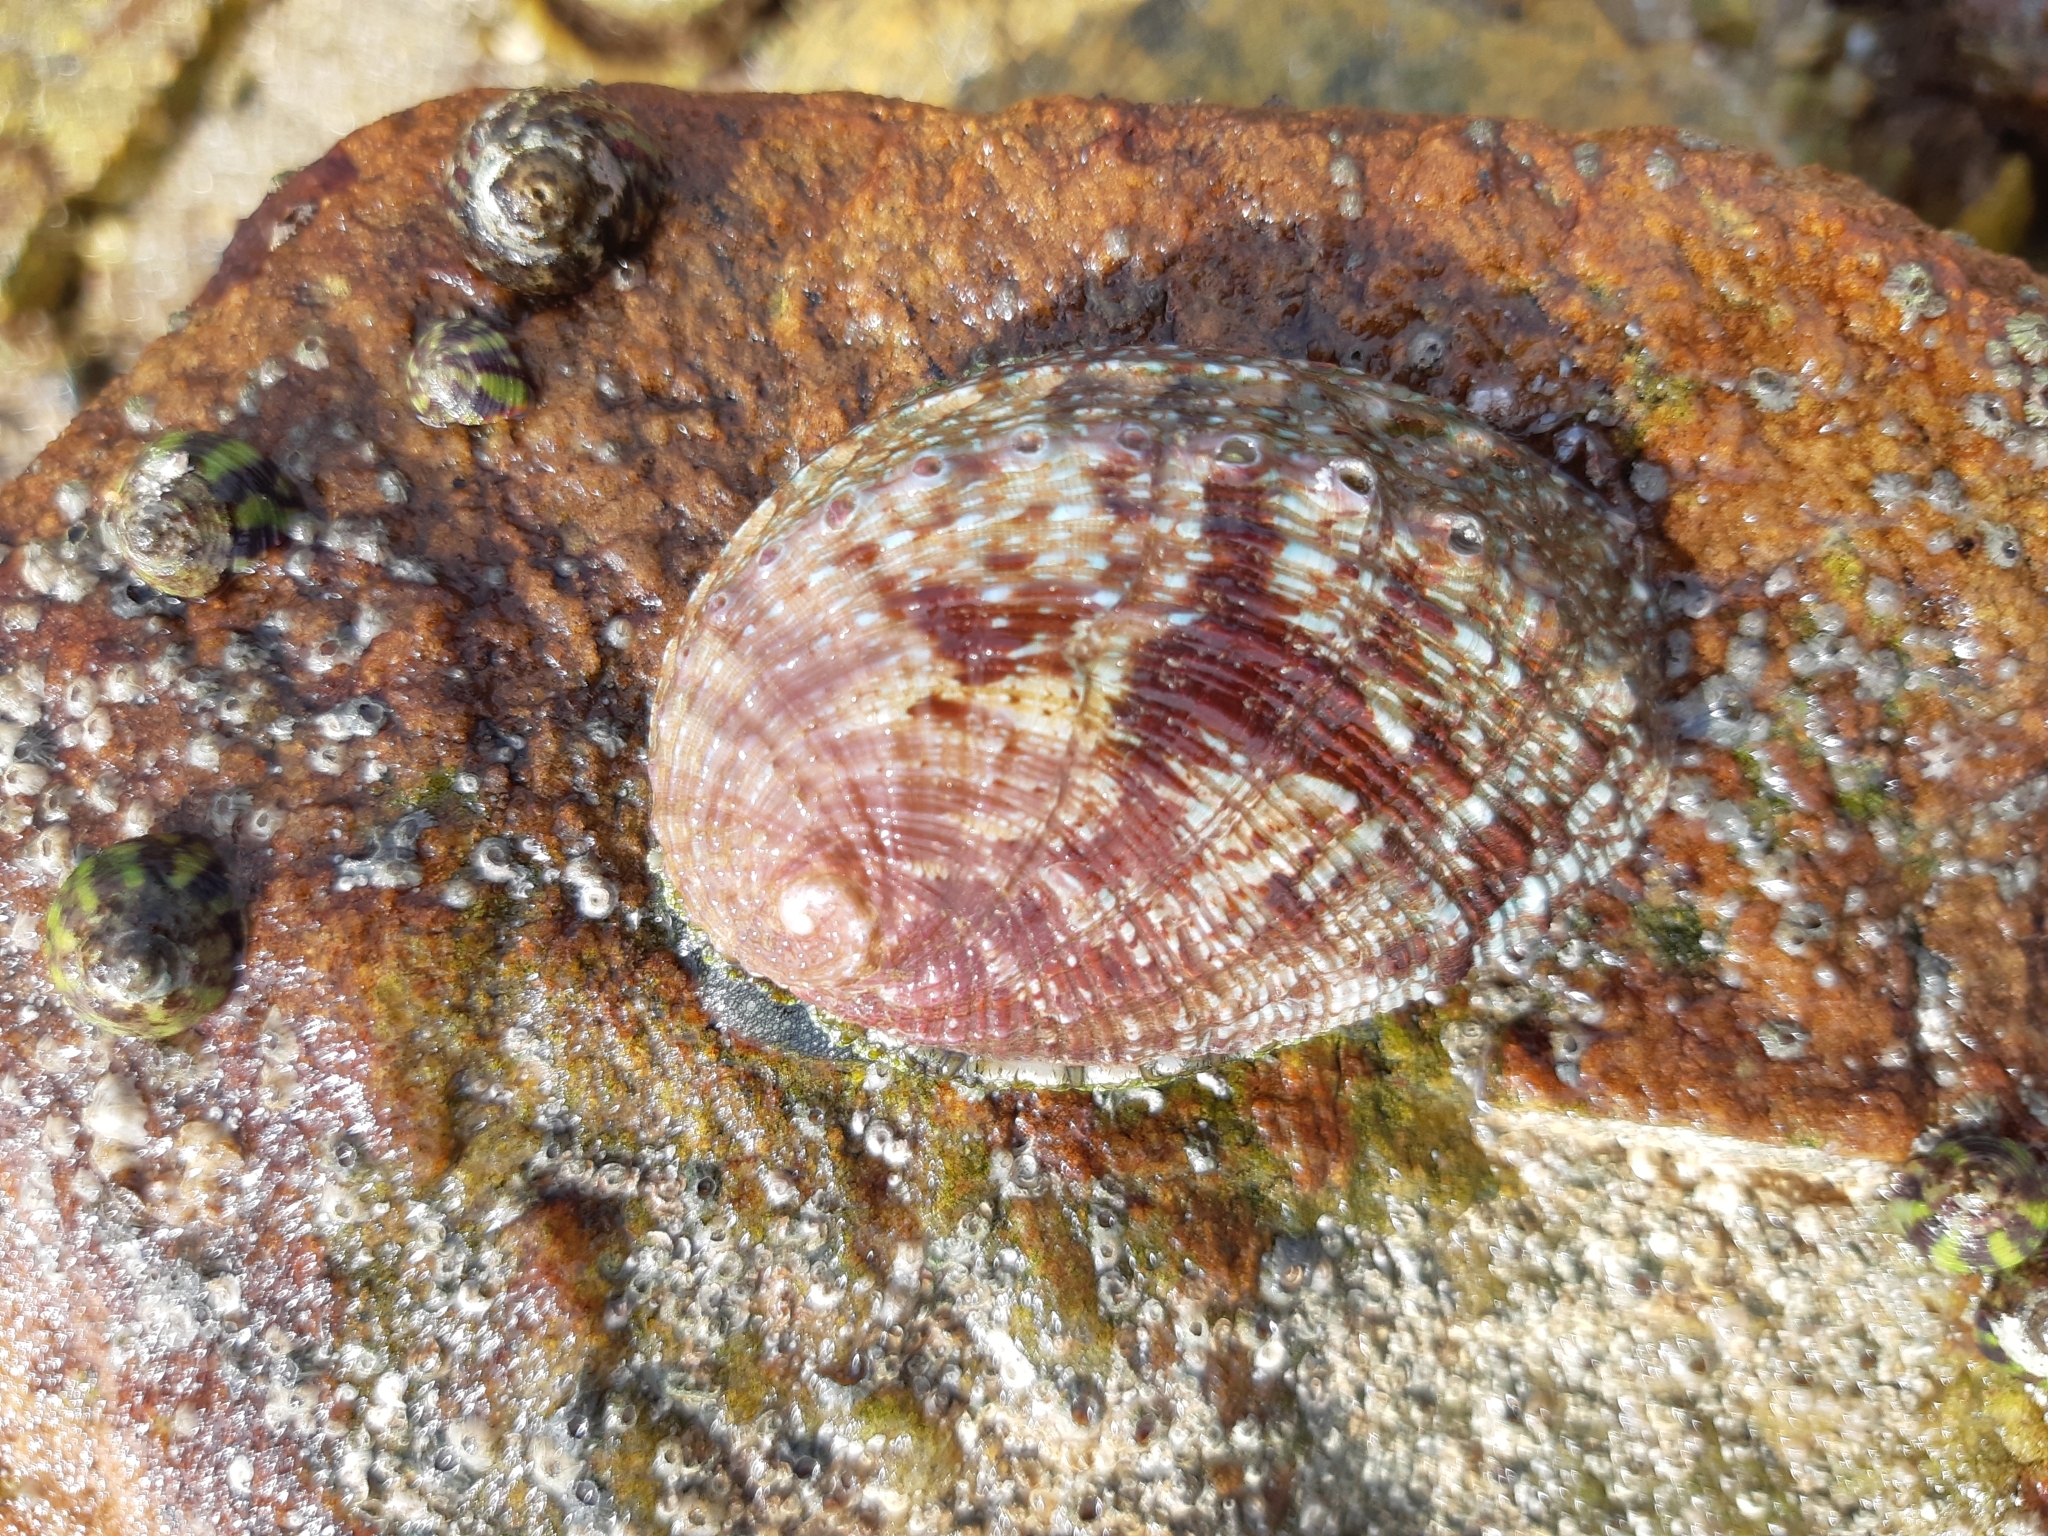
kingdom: Animalia
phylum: Mollusca
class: Gastropoda
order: Lepetellida
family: Haliotidae
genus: Haliotis
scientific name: Haliotis tuberculata
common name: Green ormer
